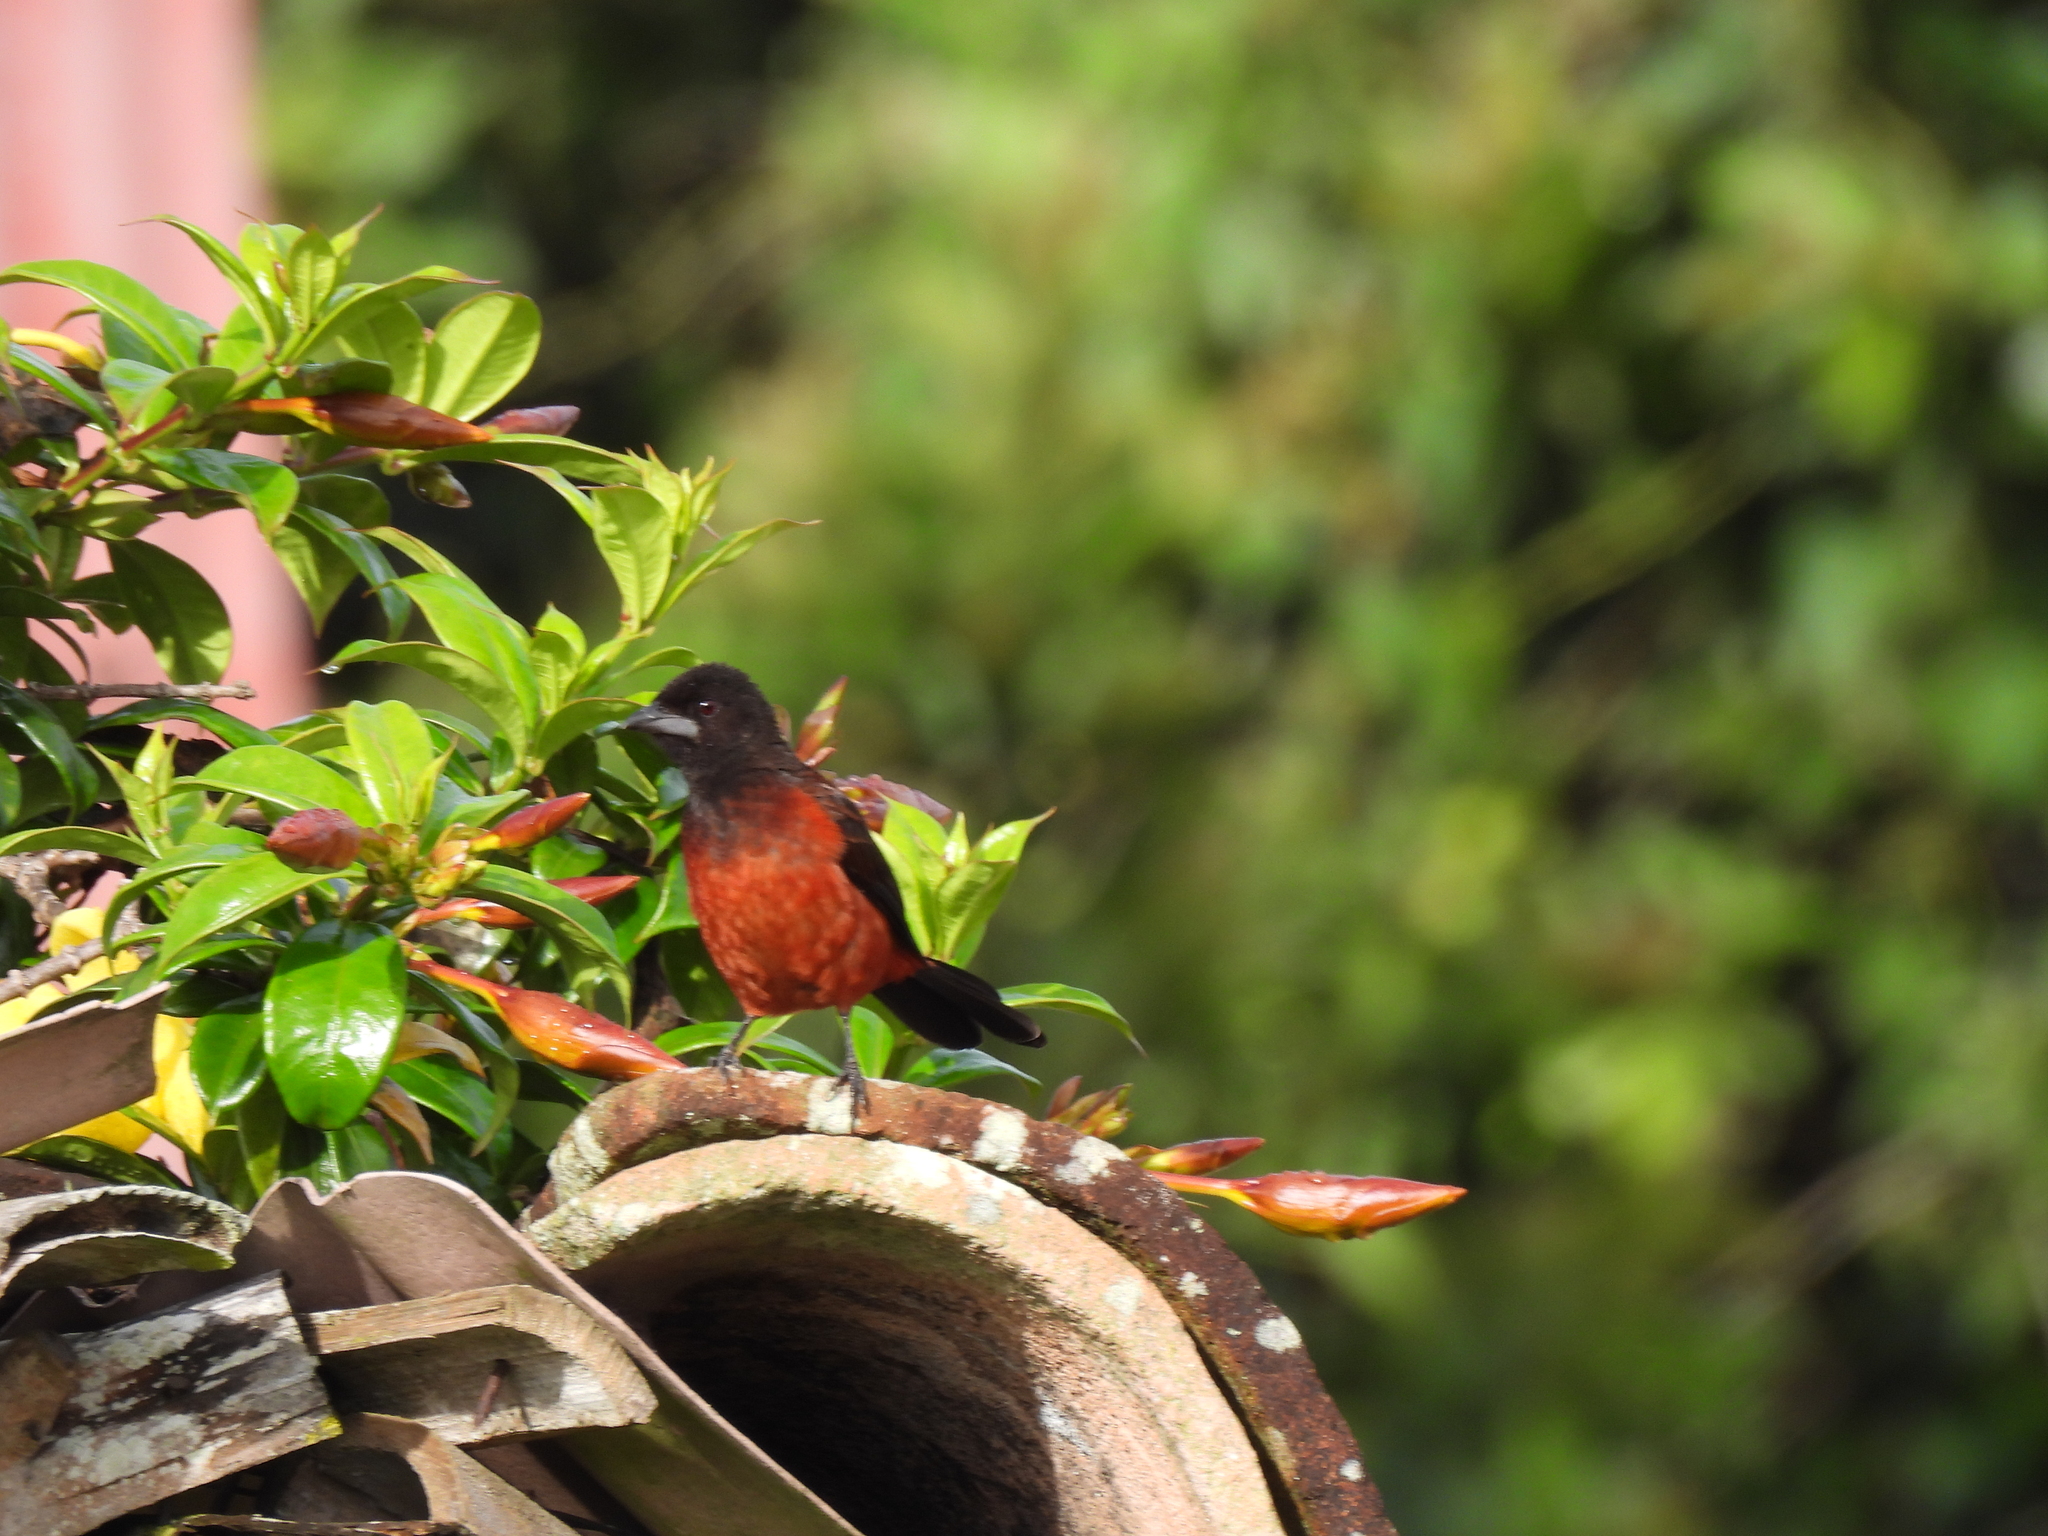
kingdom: Animalia
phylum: Chordata
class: Aves
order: Passeriformes
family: Thraupidae
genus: Ramphocelus
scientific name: Ramphocelus dimidiatus
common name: Crimson-backed tanager
